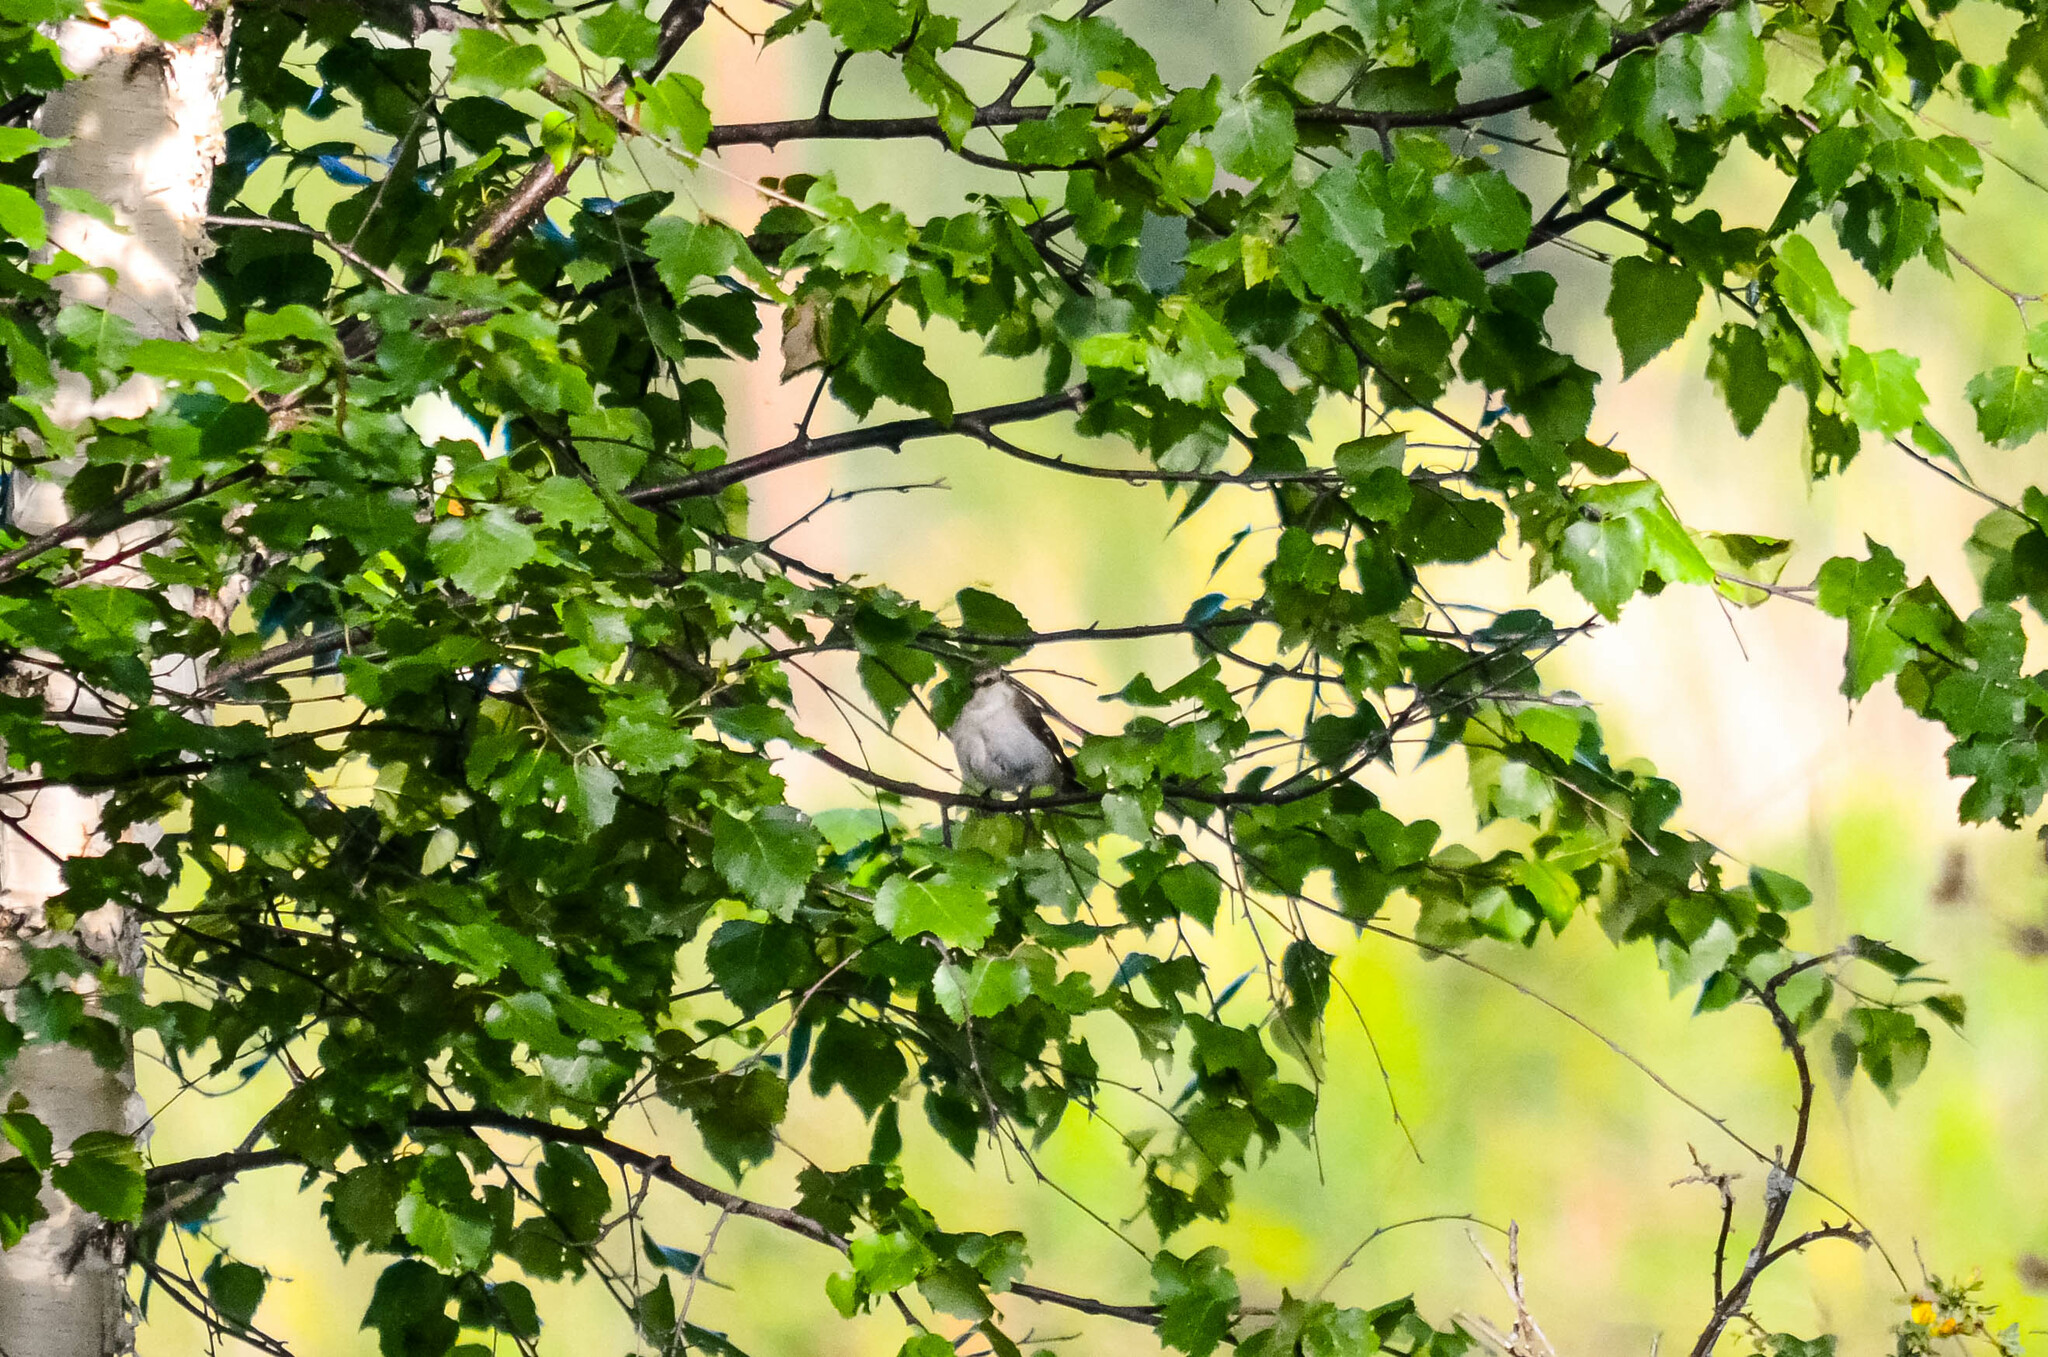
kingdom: Animalia
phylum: Chordata
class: Aves
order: Passeriformes
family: Muscicapidae
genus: Ficedula
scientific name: Ficedula hypoleuca
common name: European pied flycatcher
